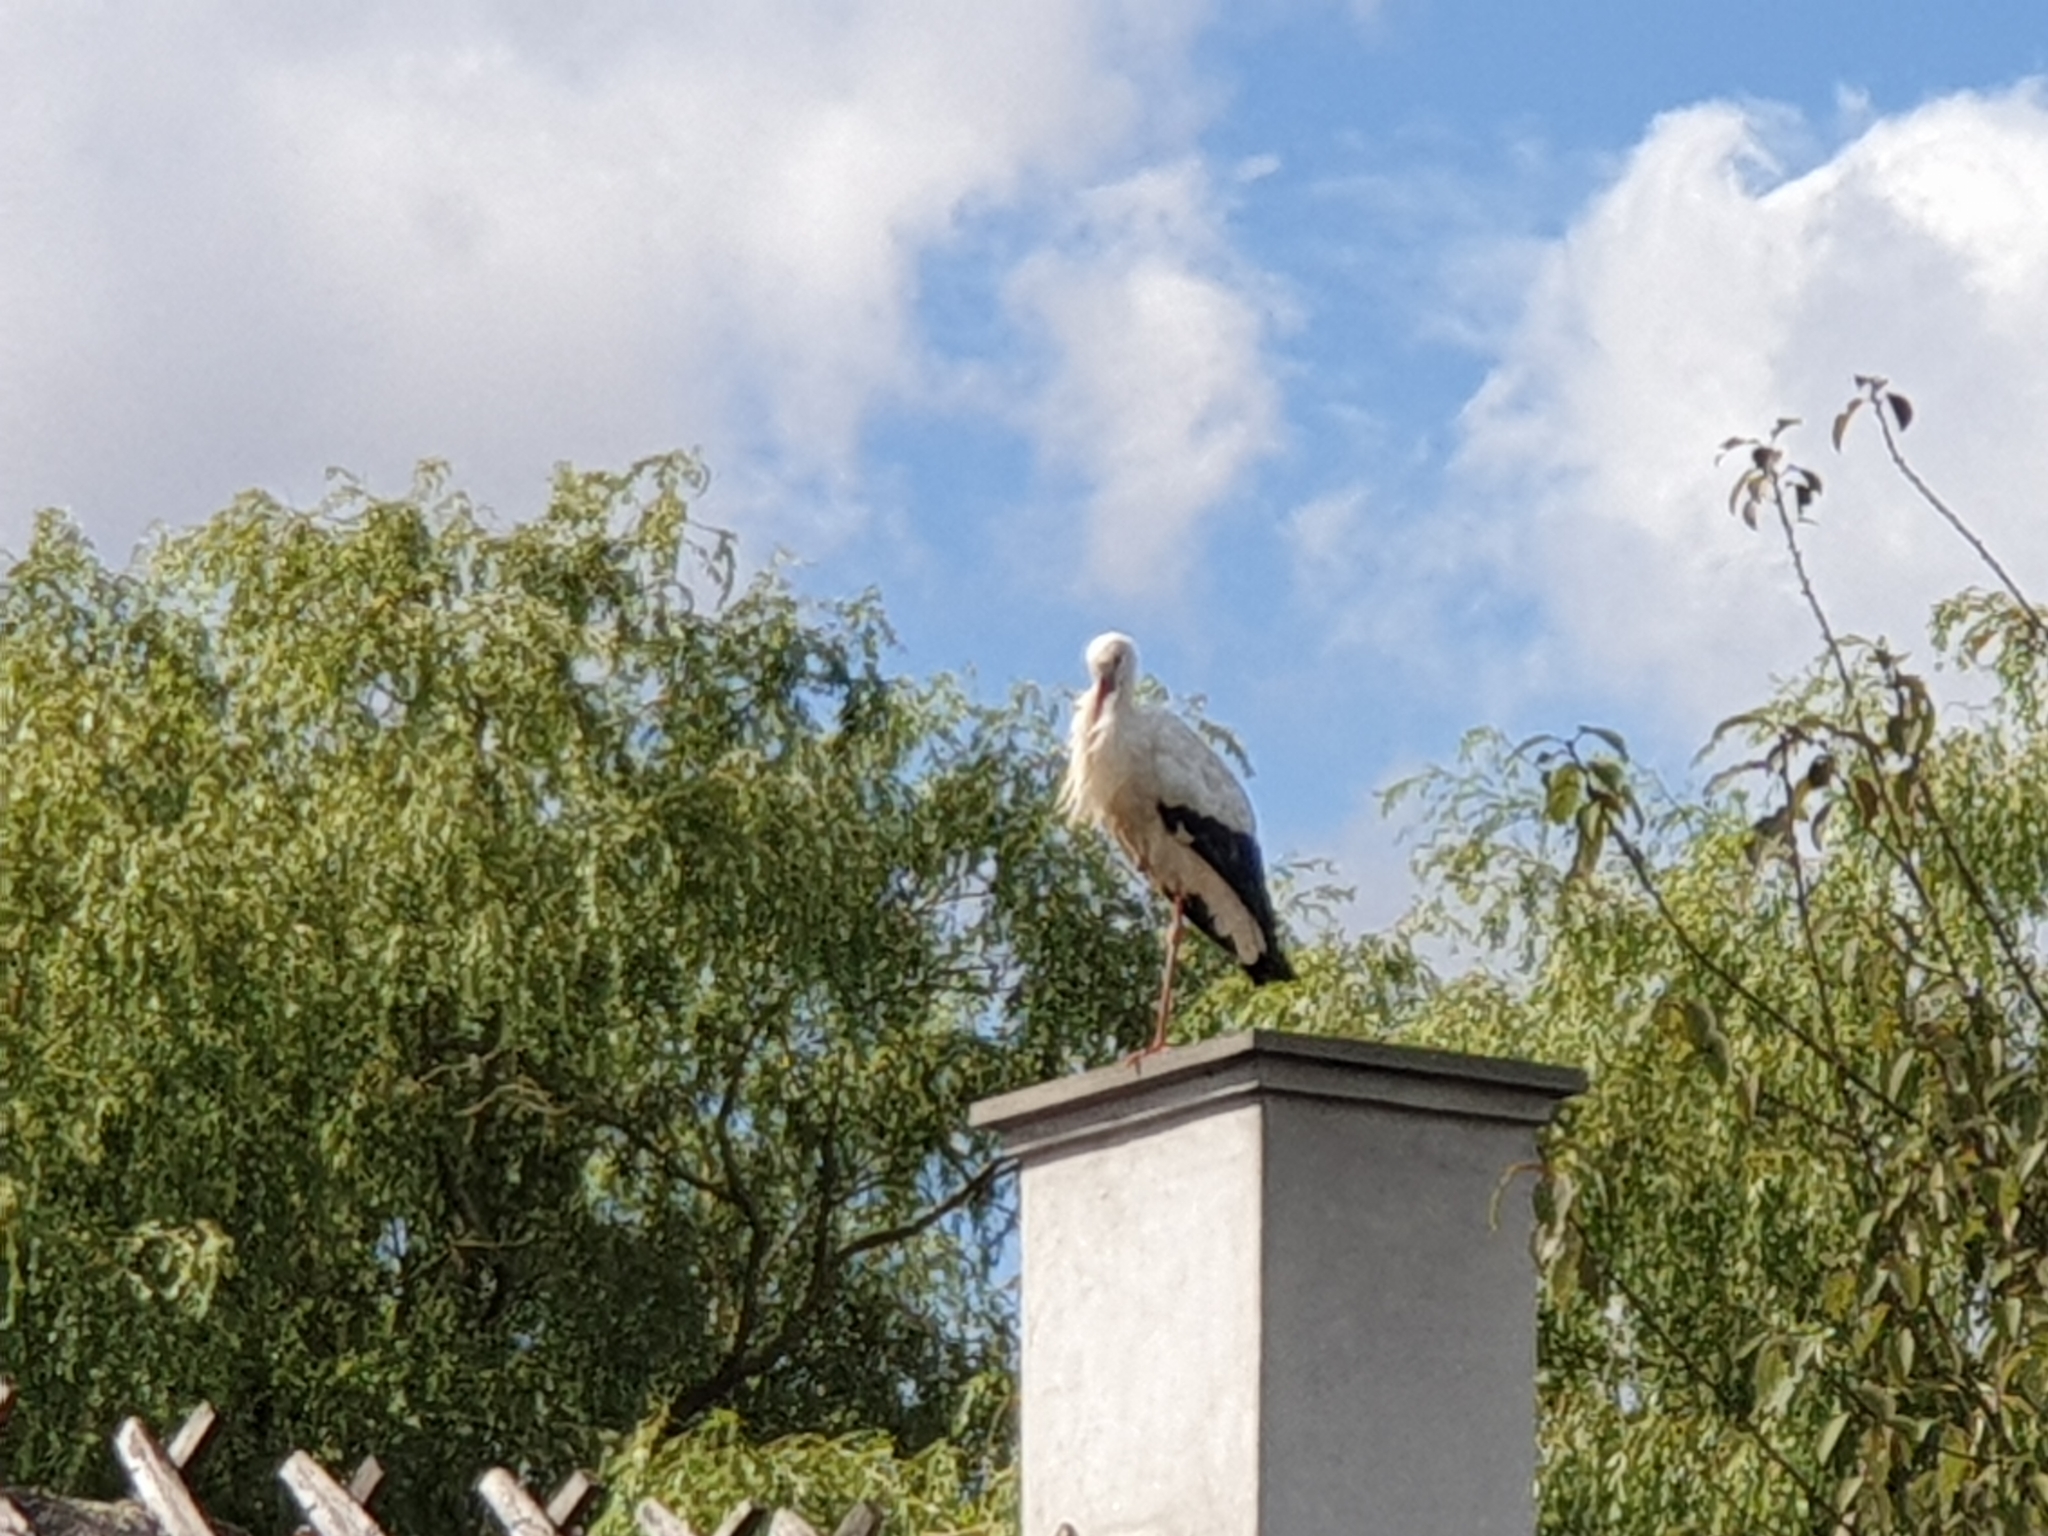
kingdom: Animalia
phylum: Chordata
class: Aves
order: Ciconiiformes
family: Ciconiidae
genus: Ciconia
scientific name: Ciconia ciconia
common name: White stork
